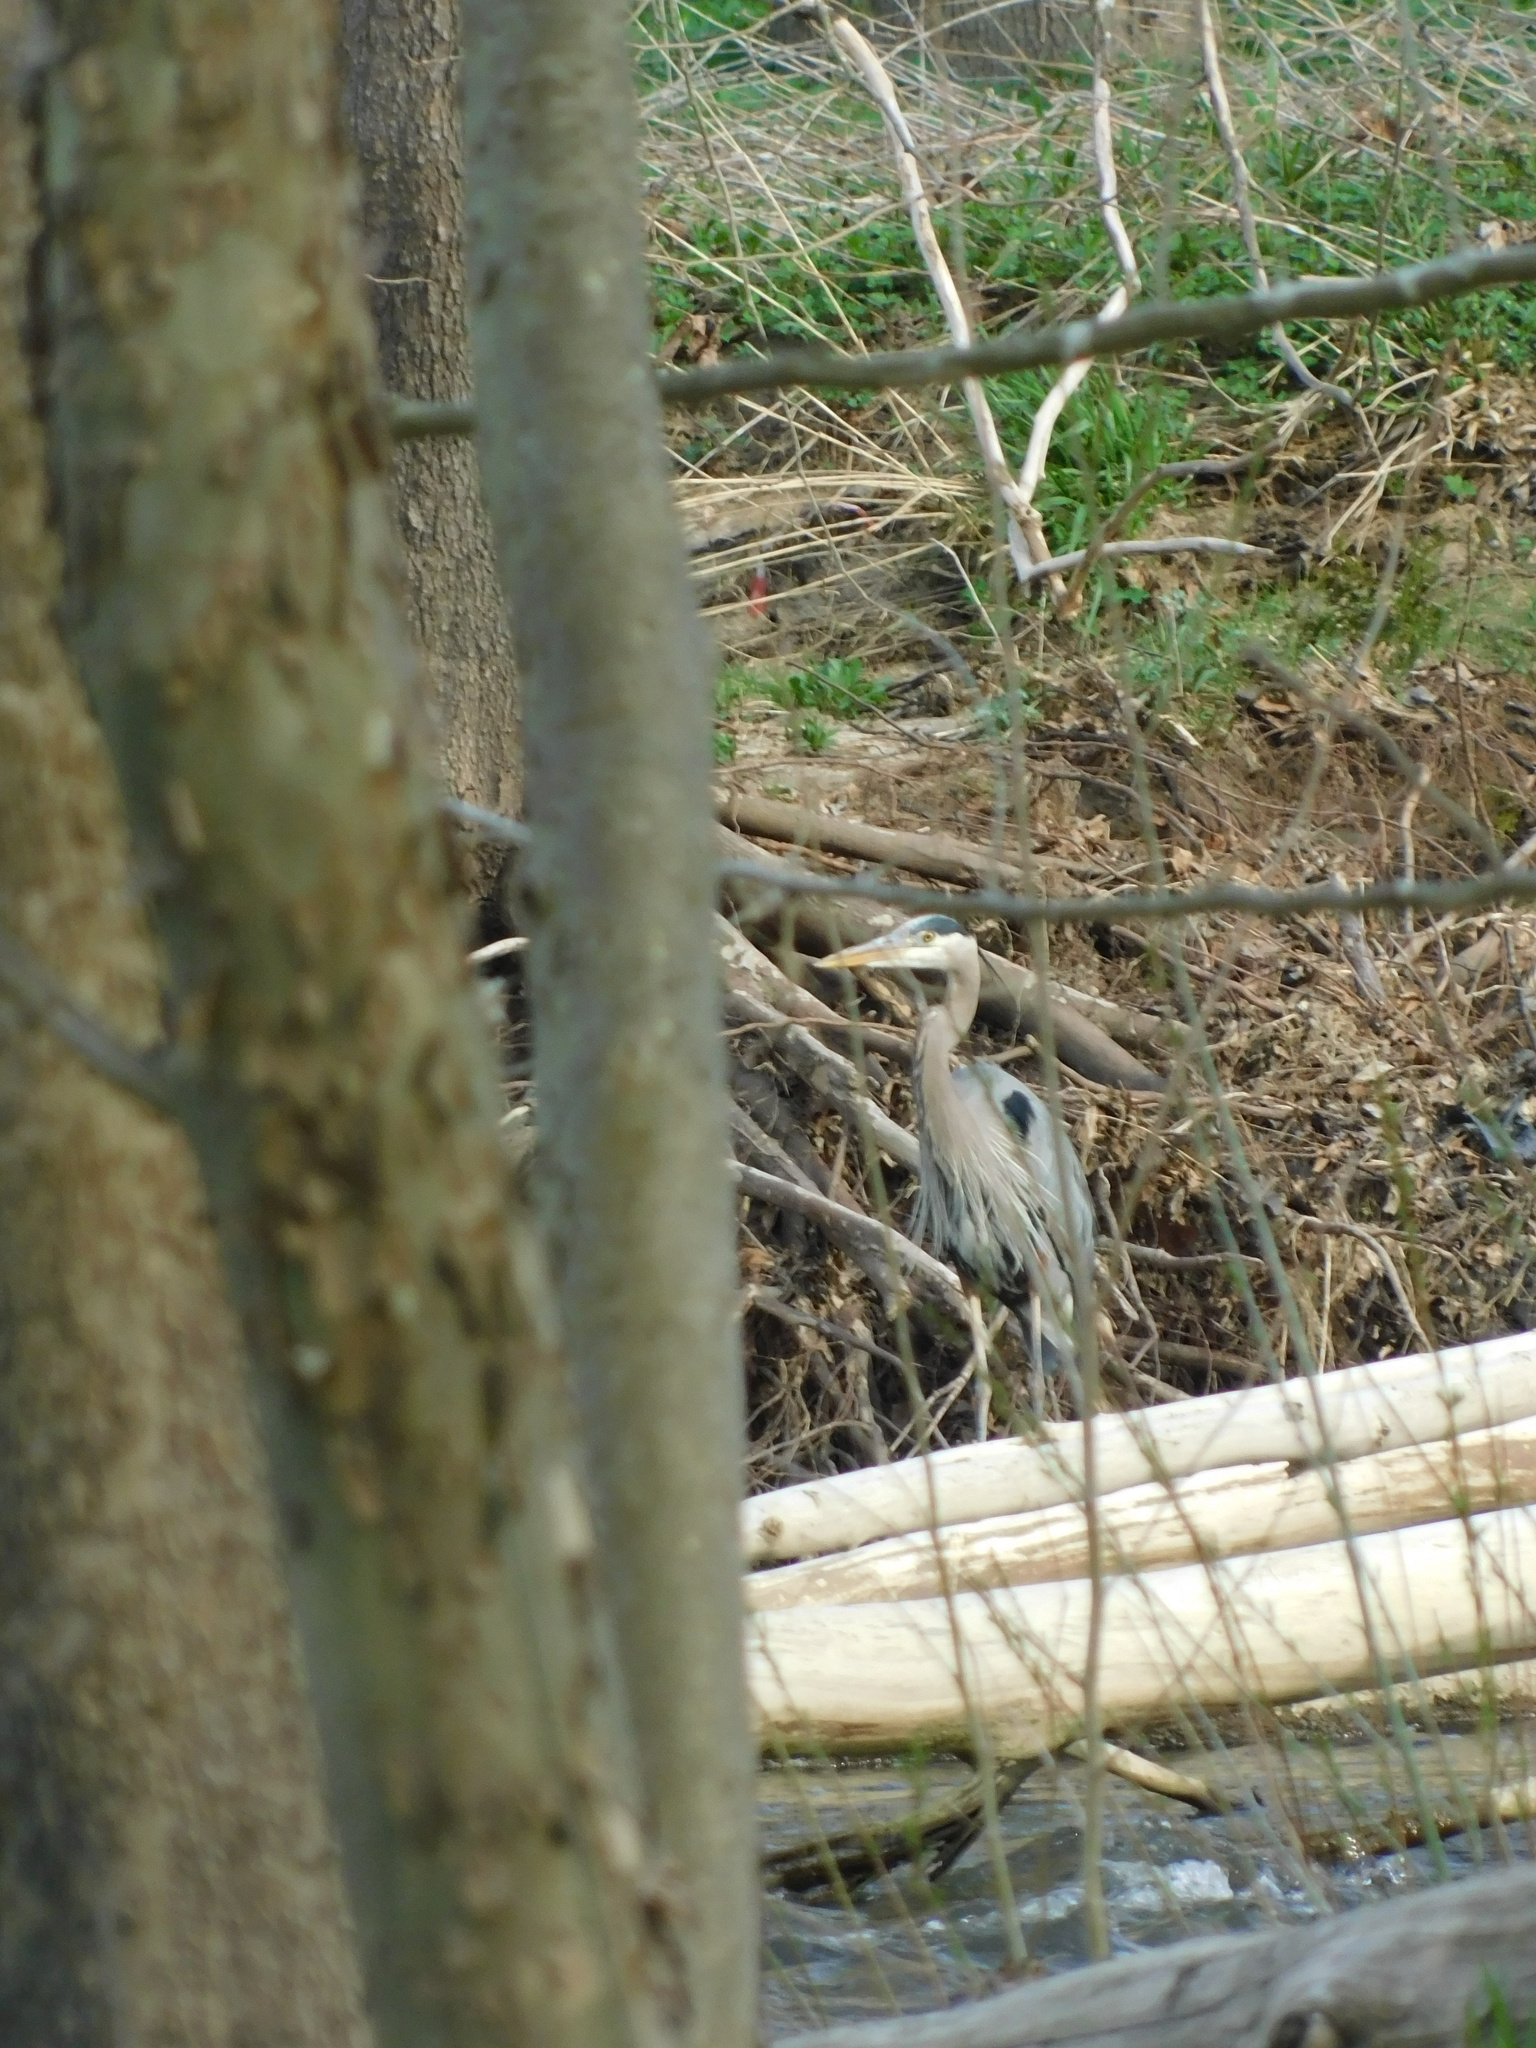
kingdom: Animalia
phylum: Chordata
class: Aves
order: Pelecaniformes
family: Ardeidae
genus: Ardea
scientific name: Ardea herodias
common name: Great blue heron
